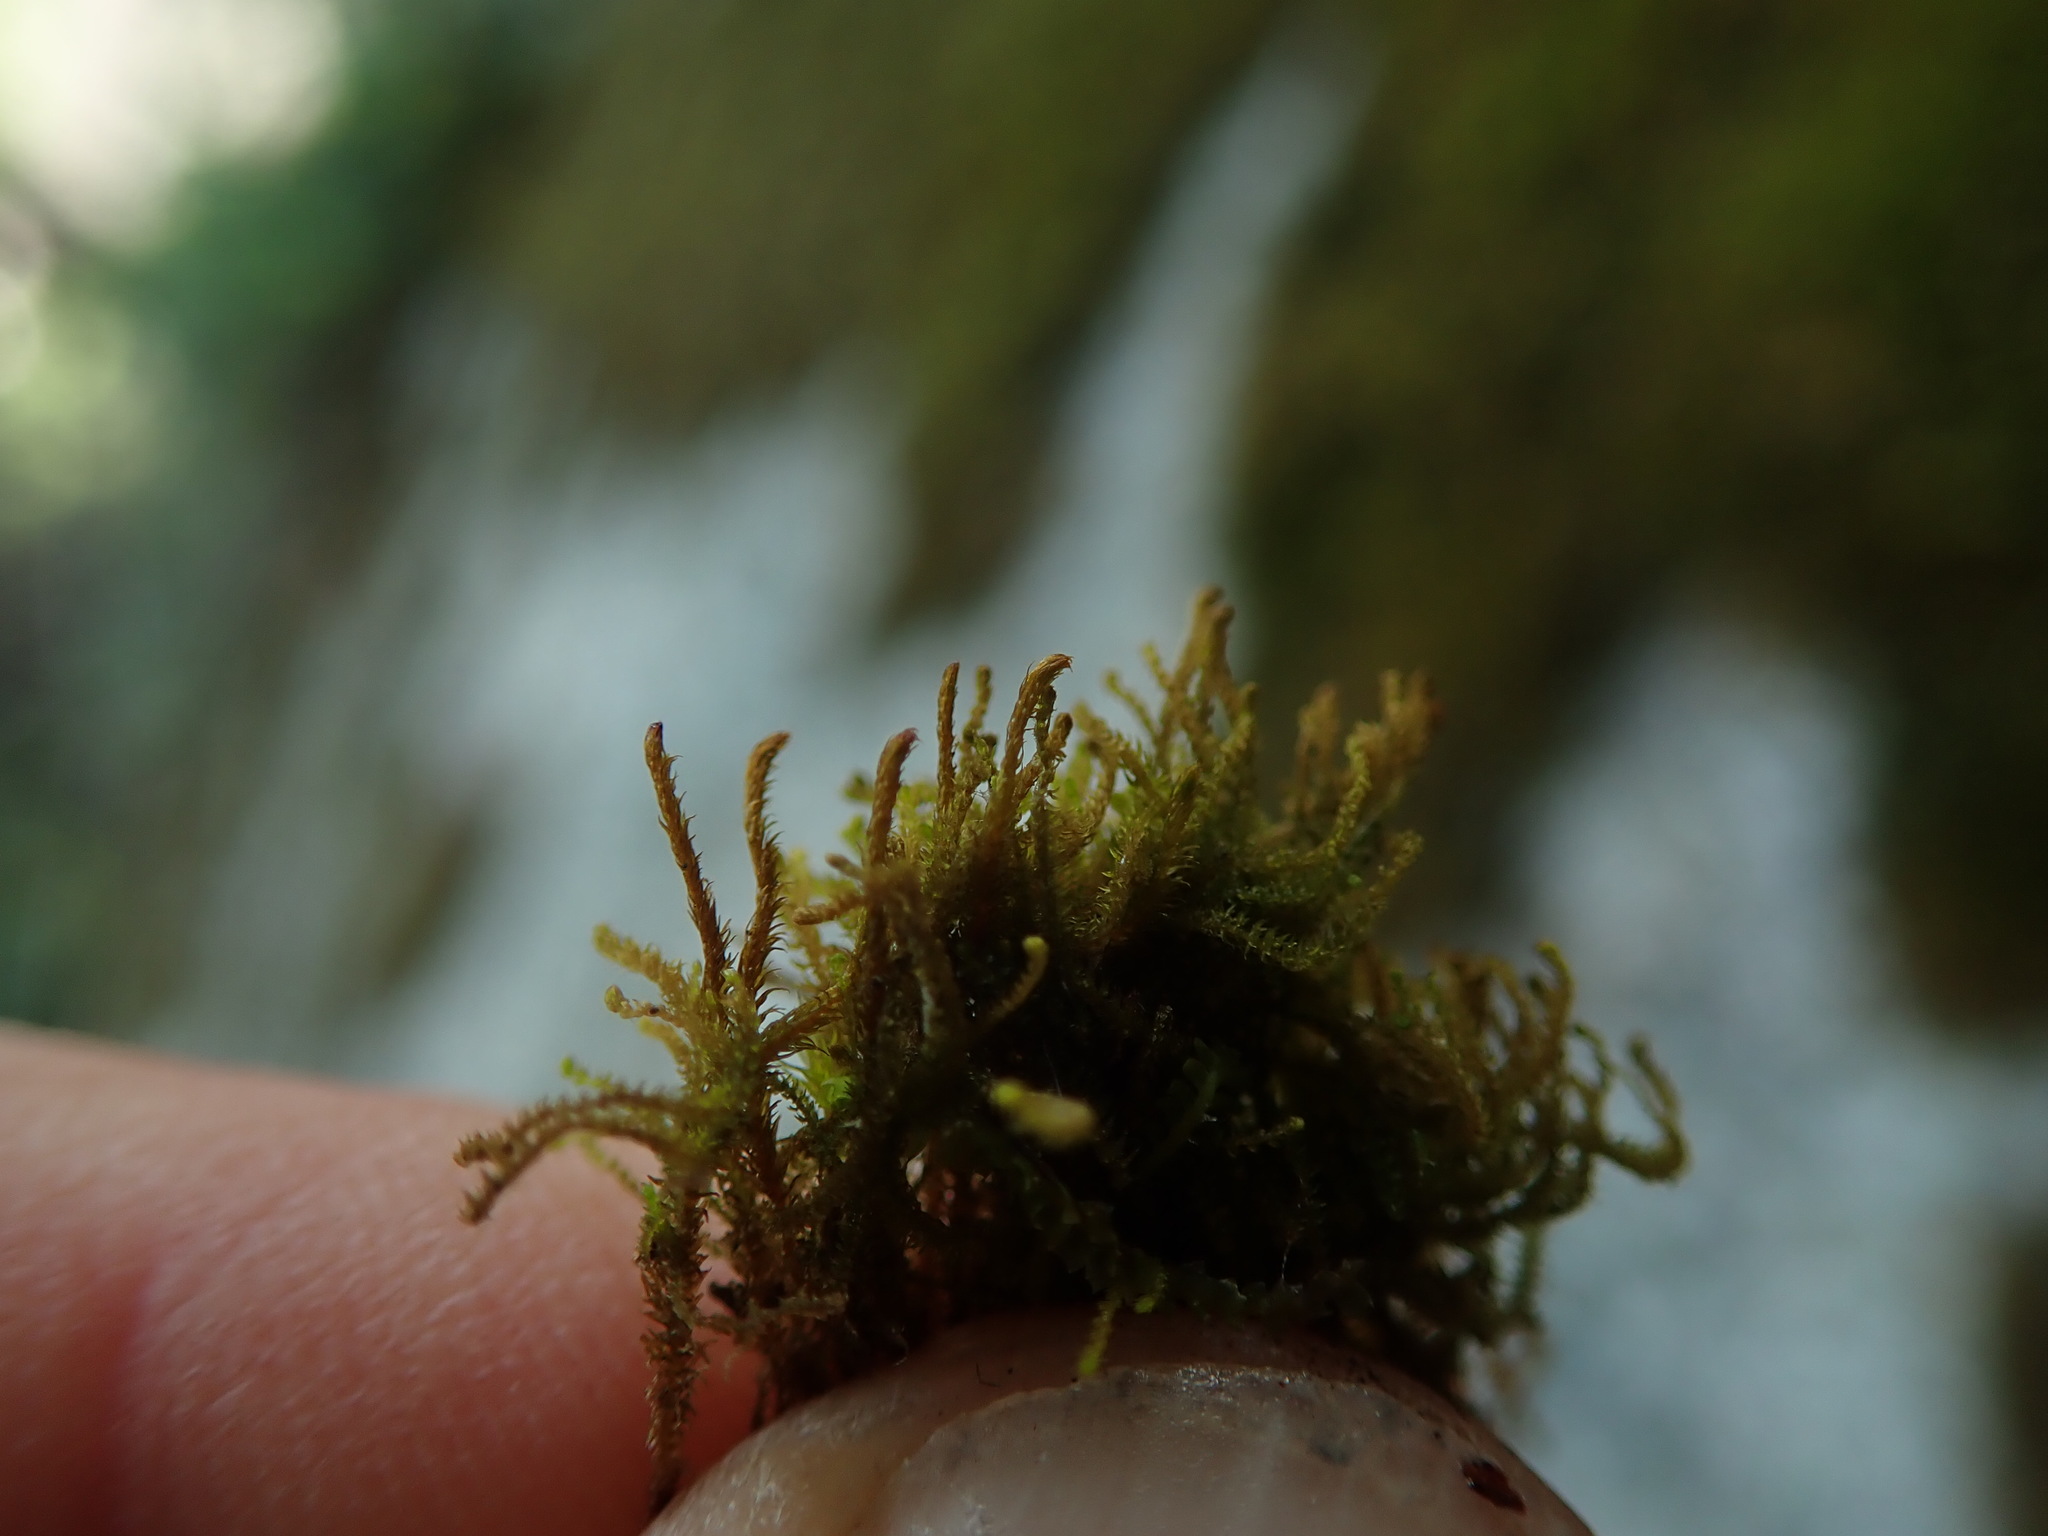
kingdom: Plantae
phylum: Marchantiophyta
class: Jungermanniopsida
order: Jungermanniales
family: Herbertaceae
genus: Herbertus
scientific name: Herbertus aduncus
